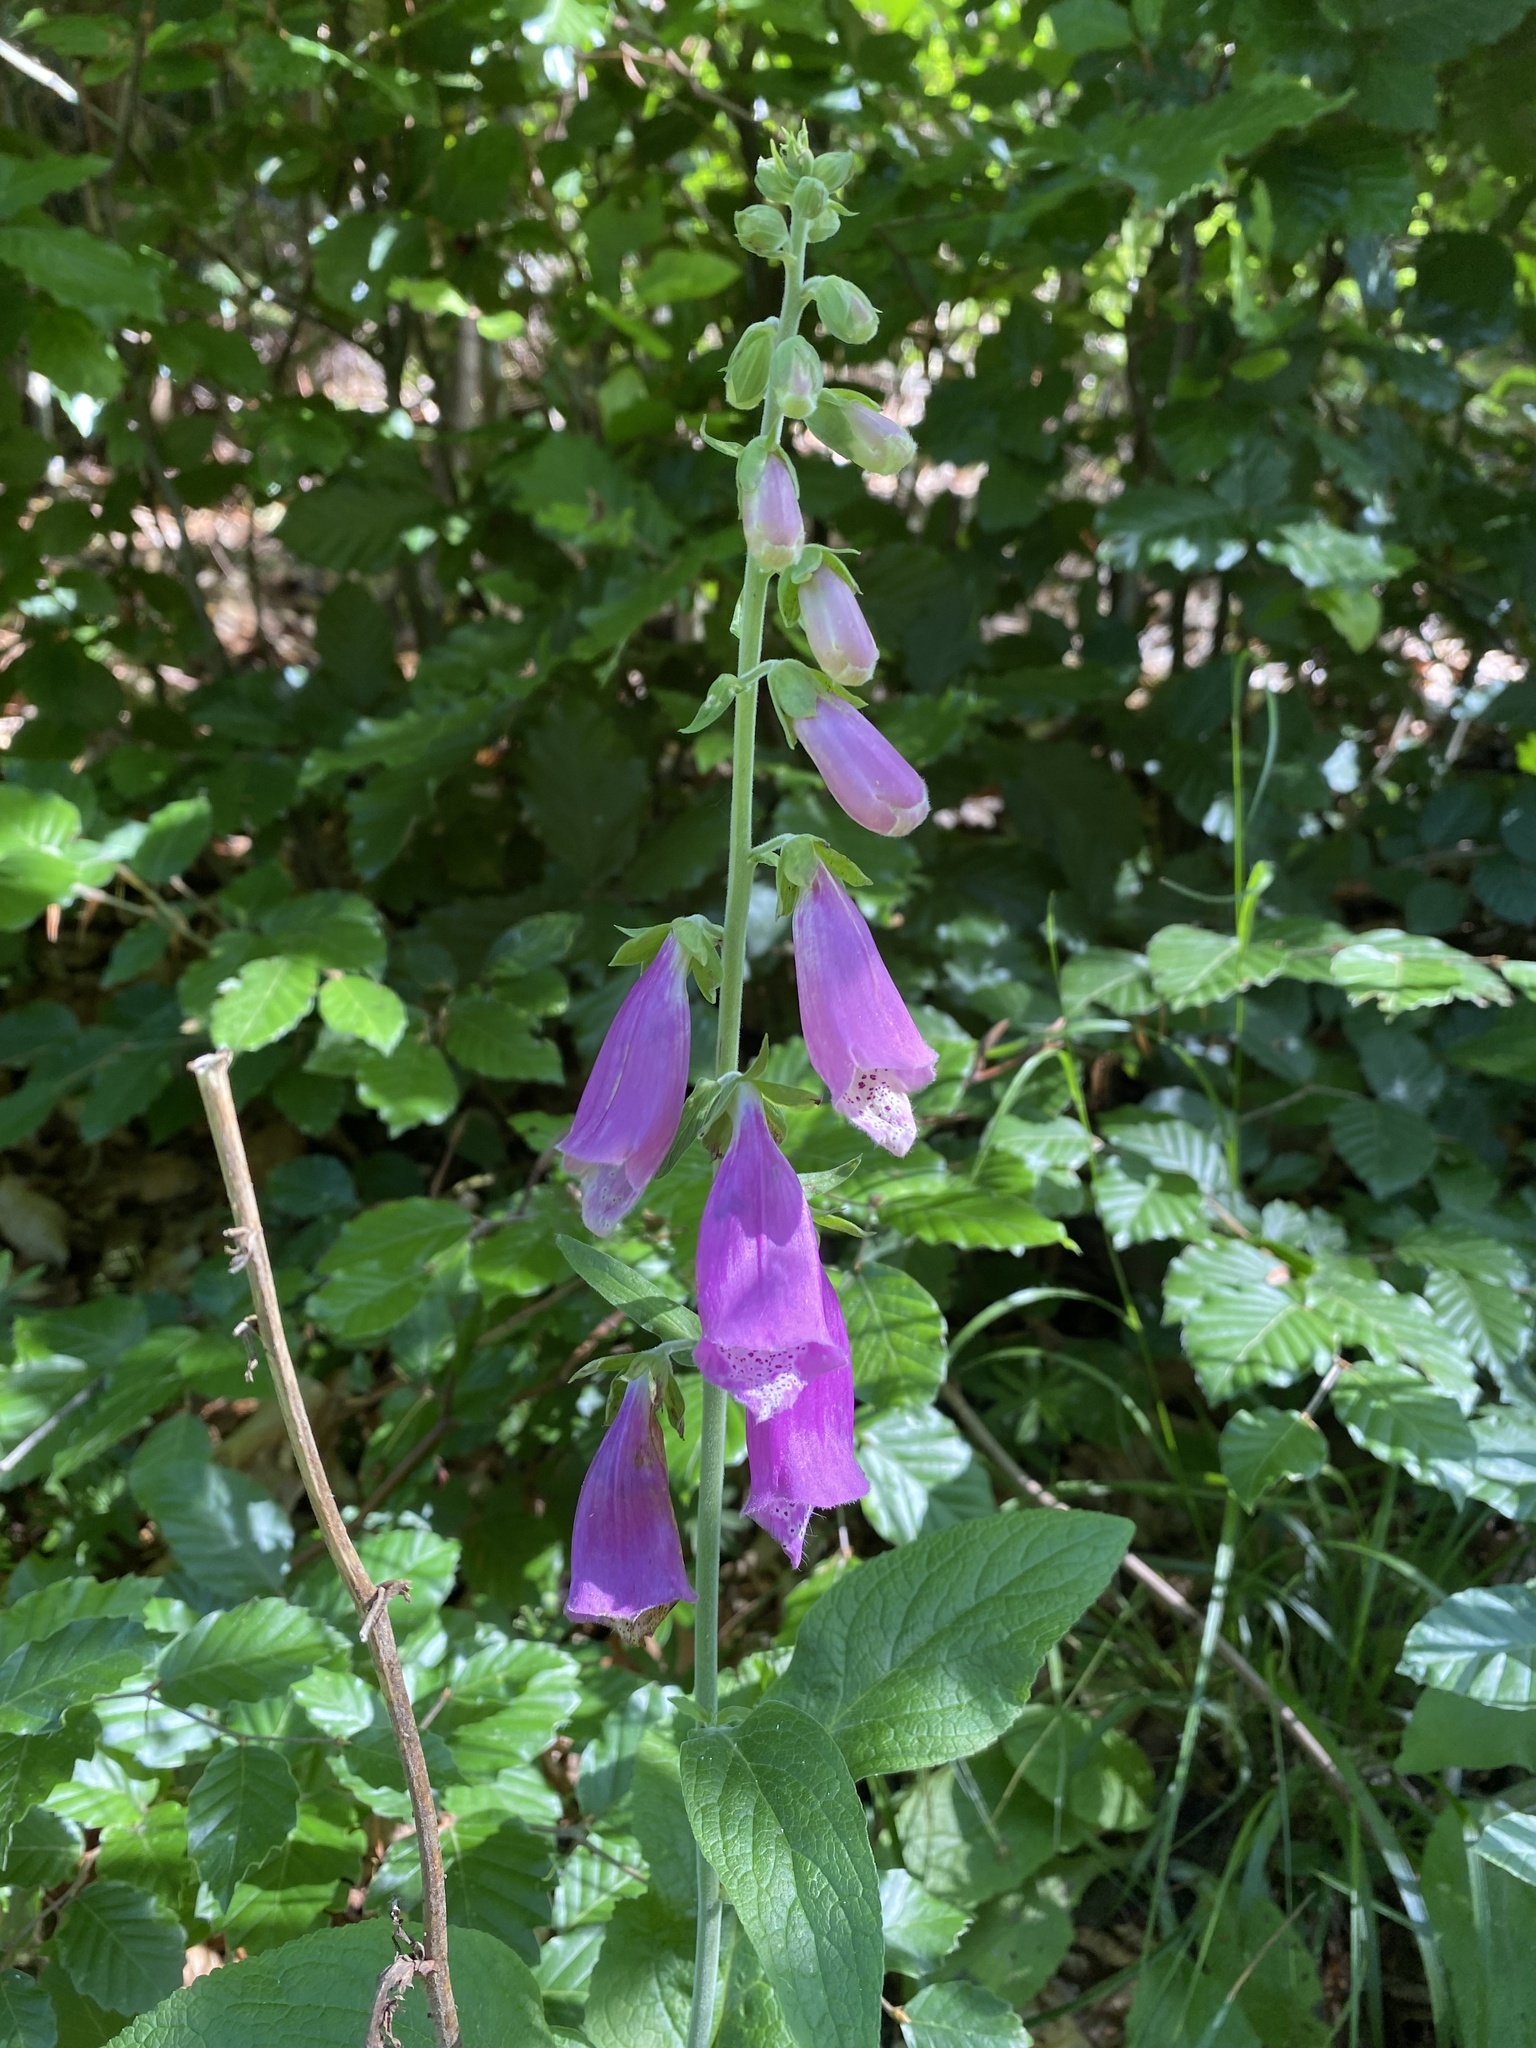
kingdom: Plantae
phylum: Tracheophyta
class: Magnoliopsida
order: Lamiales
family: Plantaginaceae
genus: Digitalis
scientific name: Digitalis purpurea
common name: Foxglove
